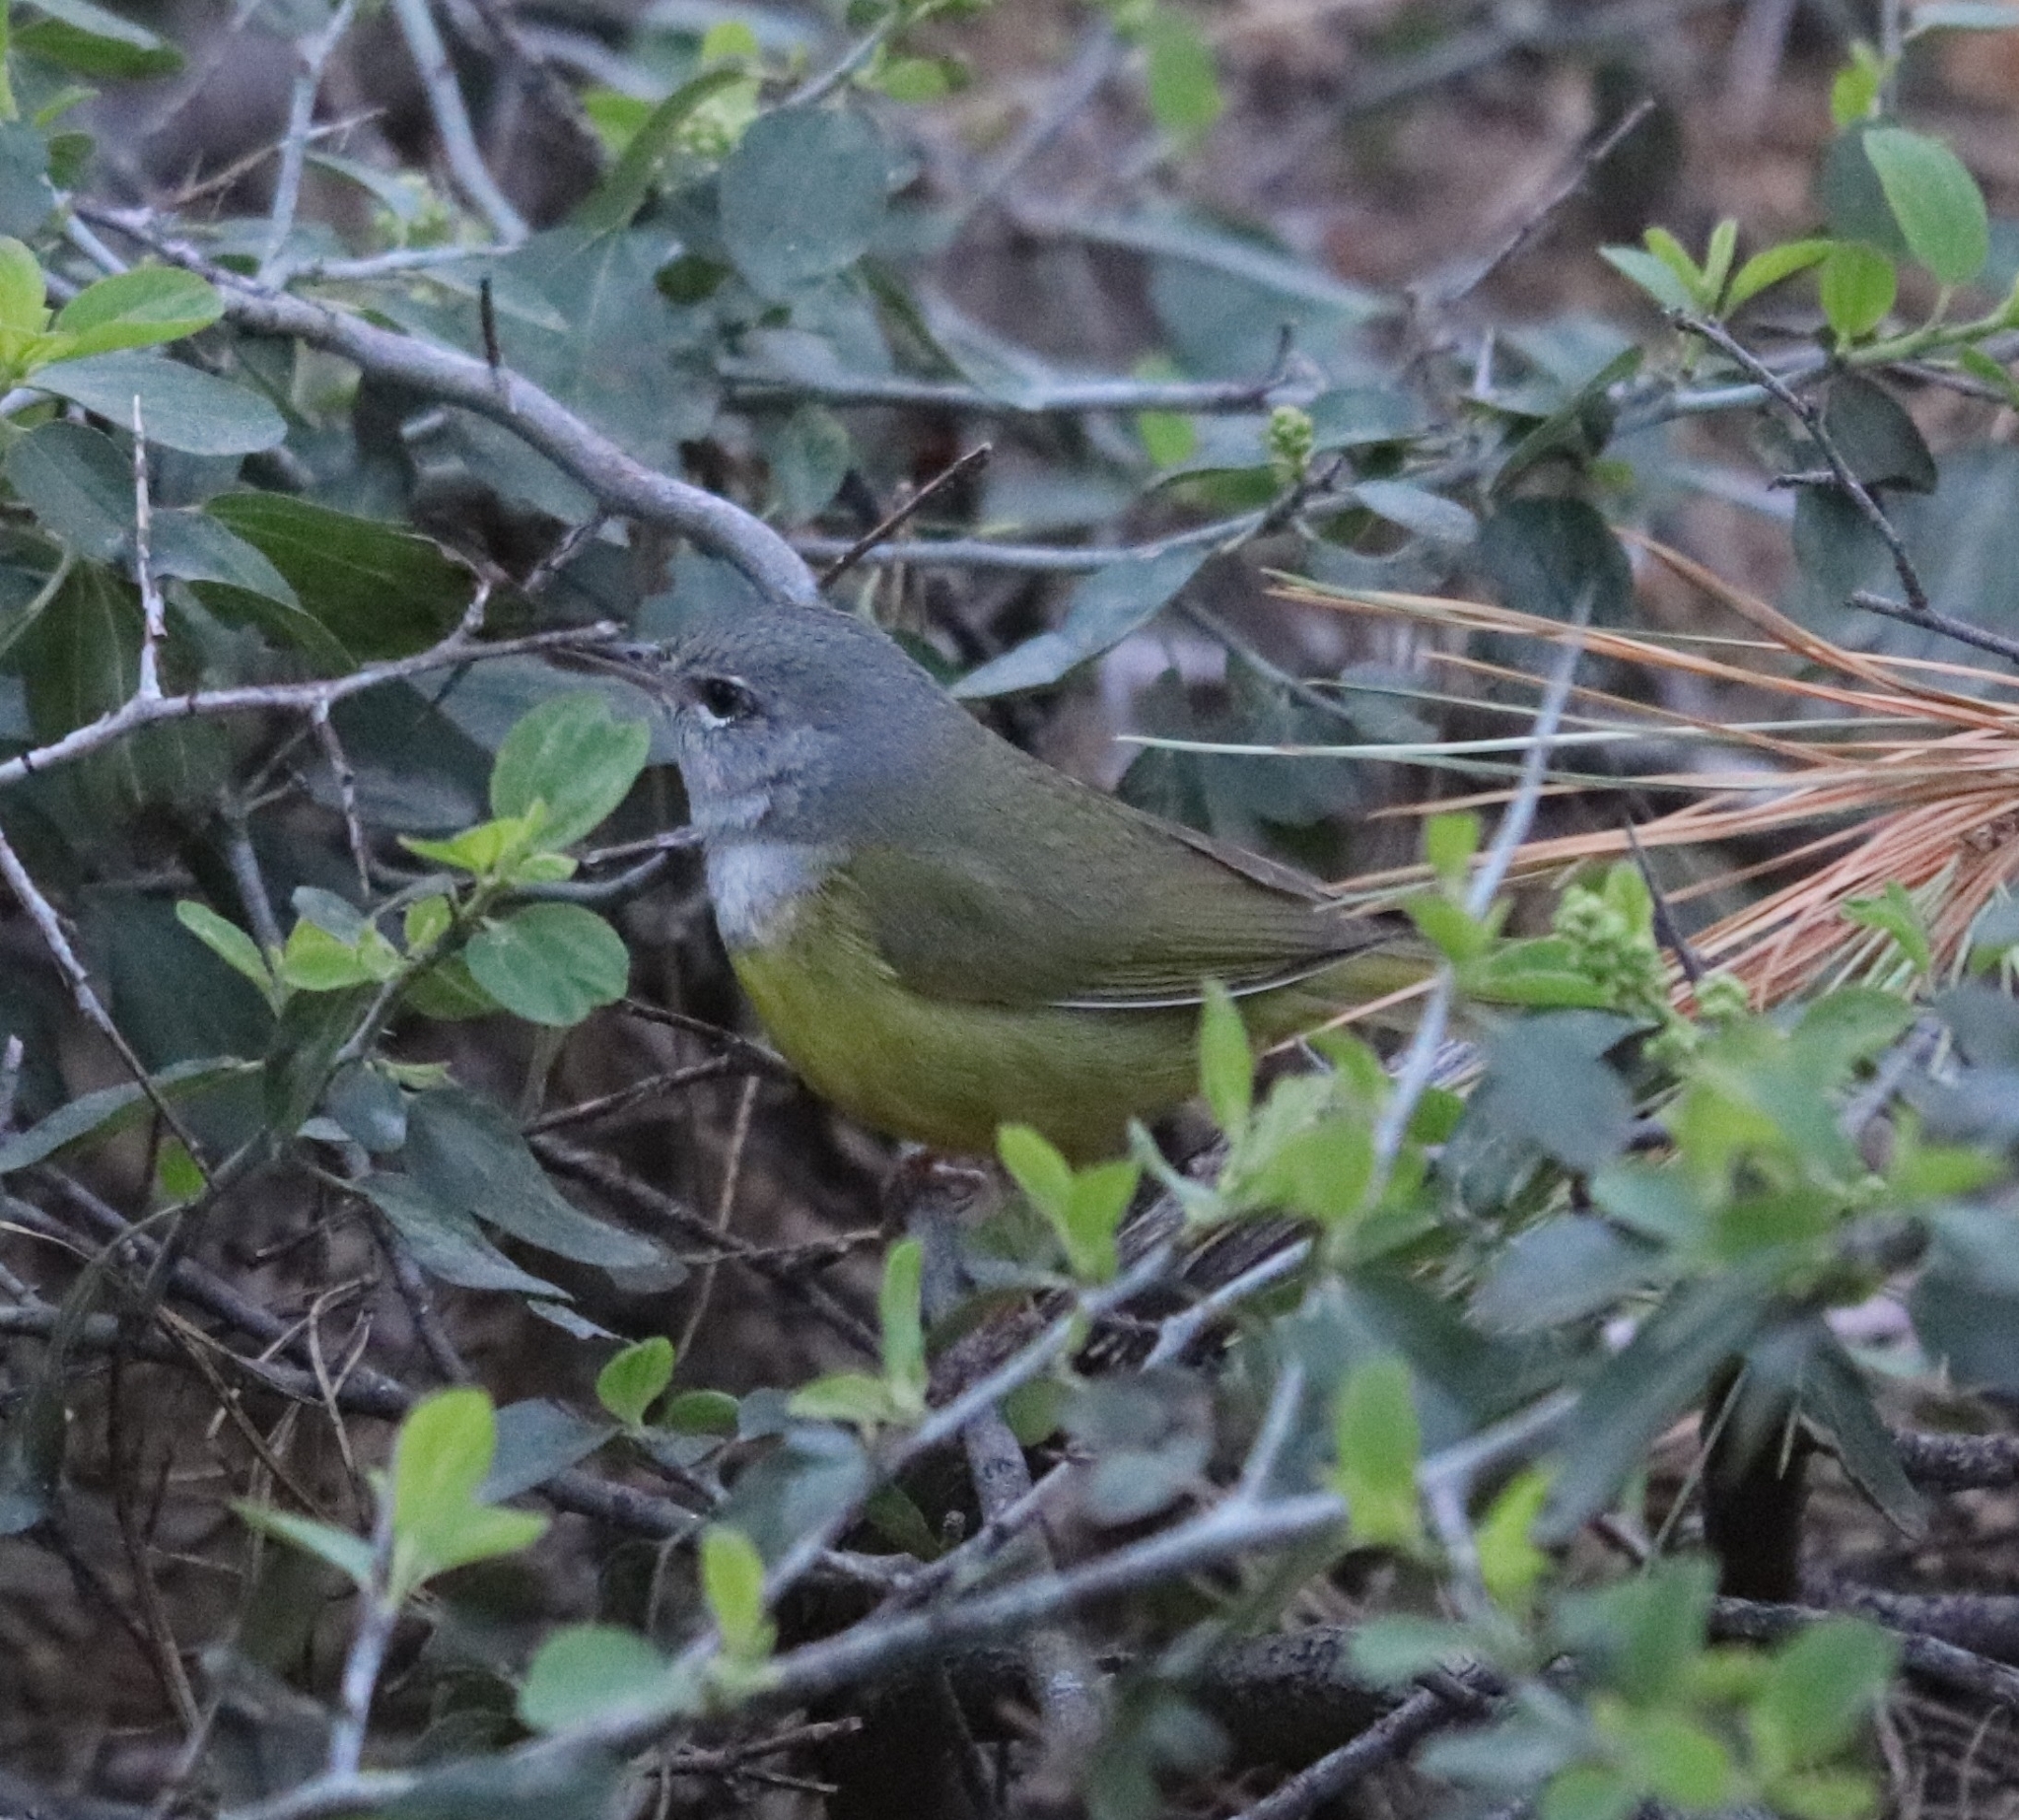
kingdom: Animalia
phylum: Chordata
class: Aves
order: Passeriformes
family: Parulidae
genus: Geothlypis
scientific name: Geothlypis tolmiei
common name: Macgillivray's warbler
